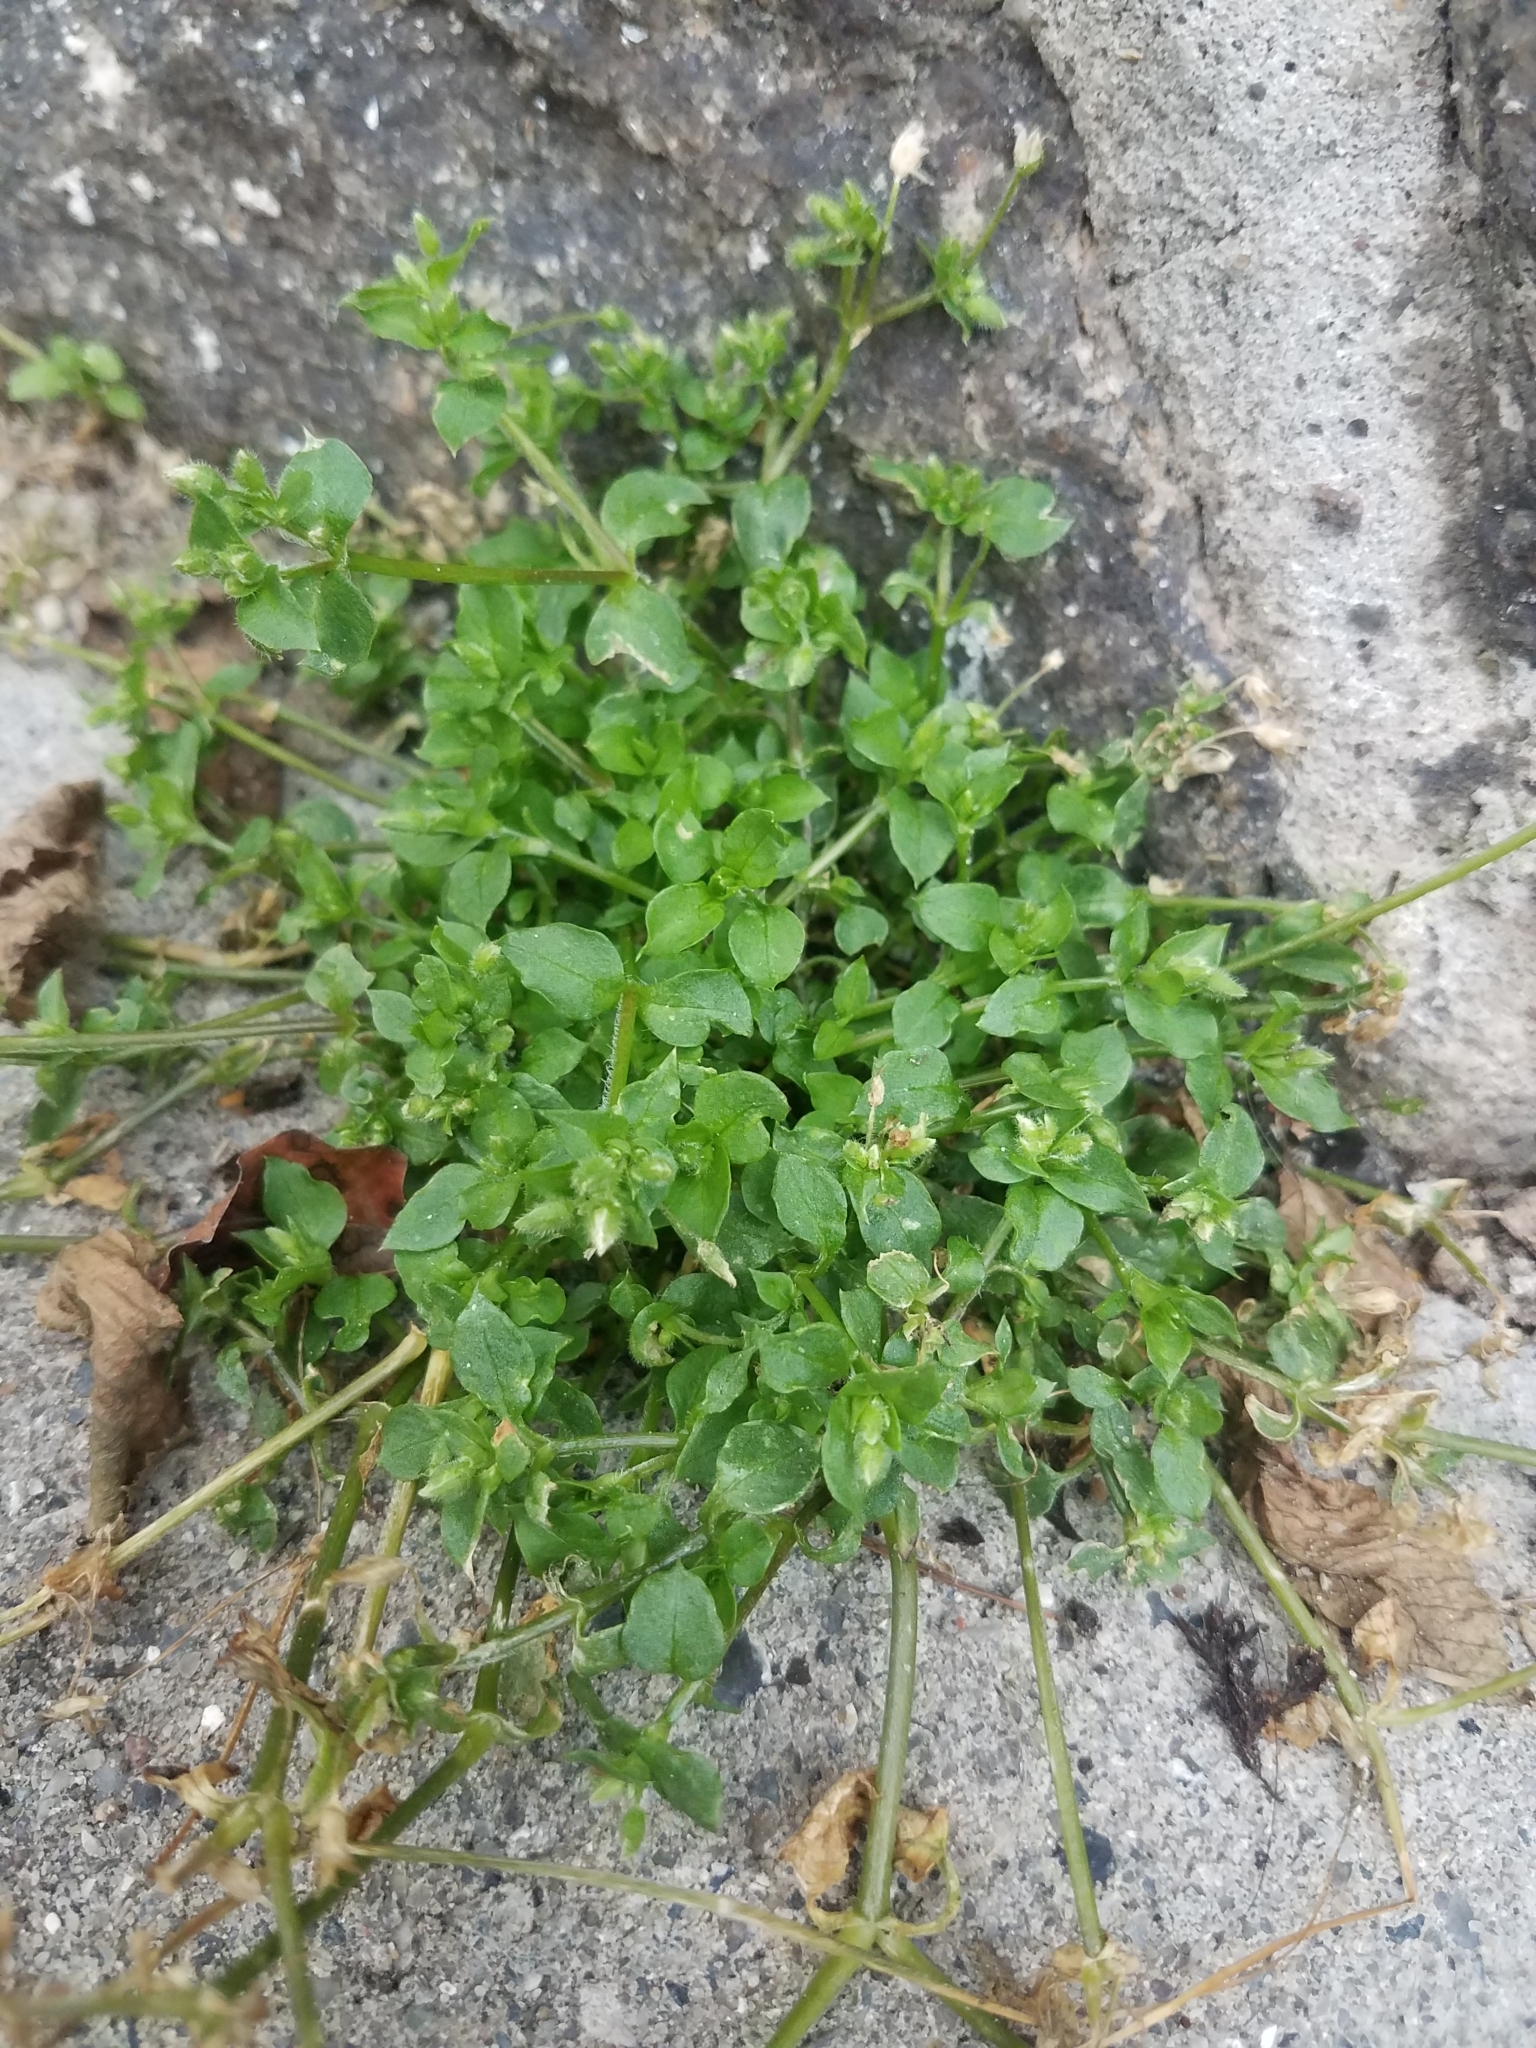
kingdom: Plantae
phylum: Tracheophyta
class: Magnoliopsida
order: Caryophyllales
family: Caryophyllaceae
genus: Stellaria
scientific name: Stellaria media
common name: Common chickweed
